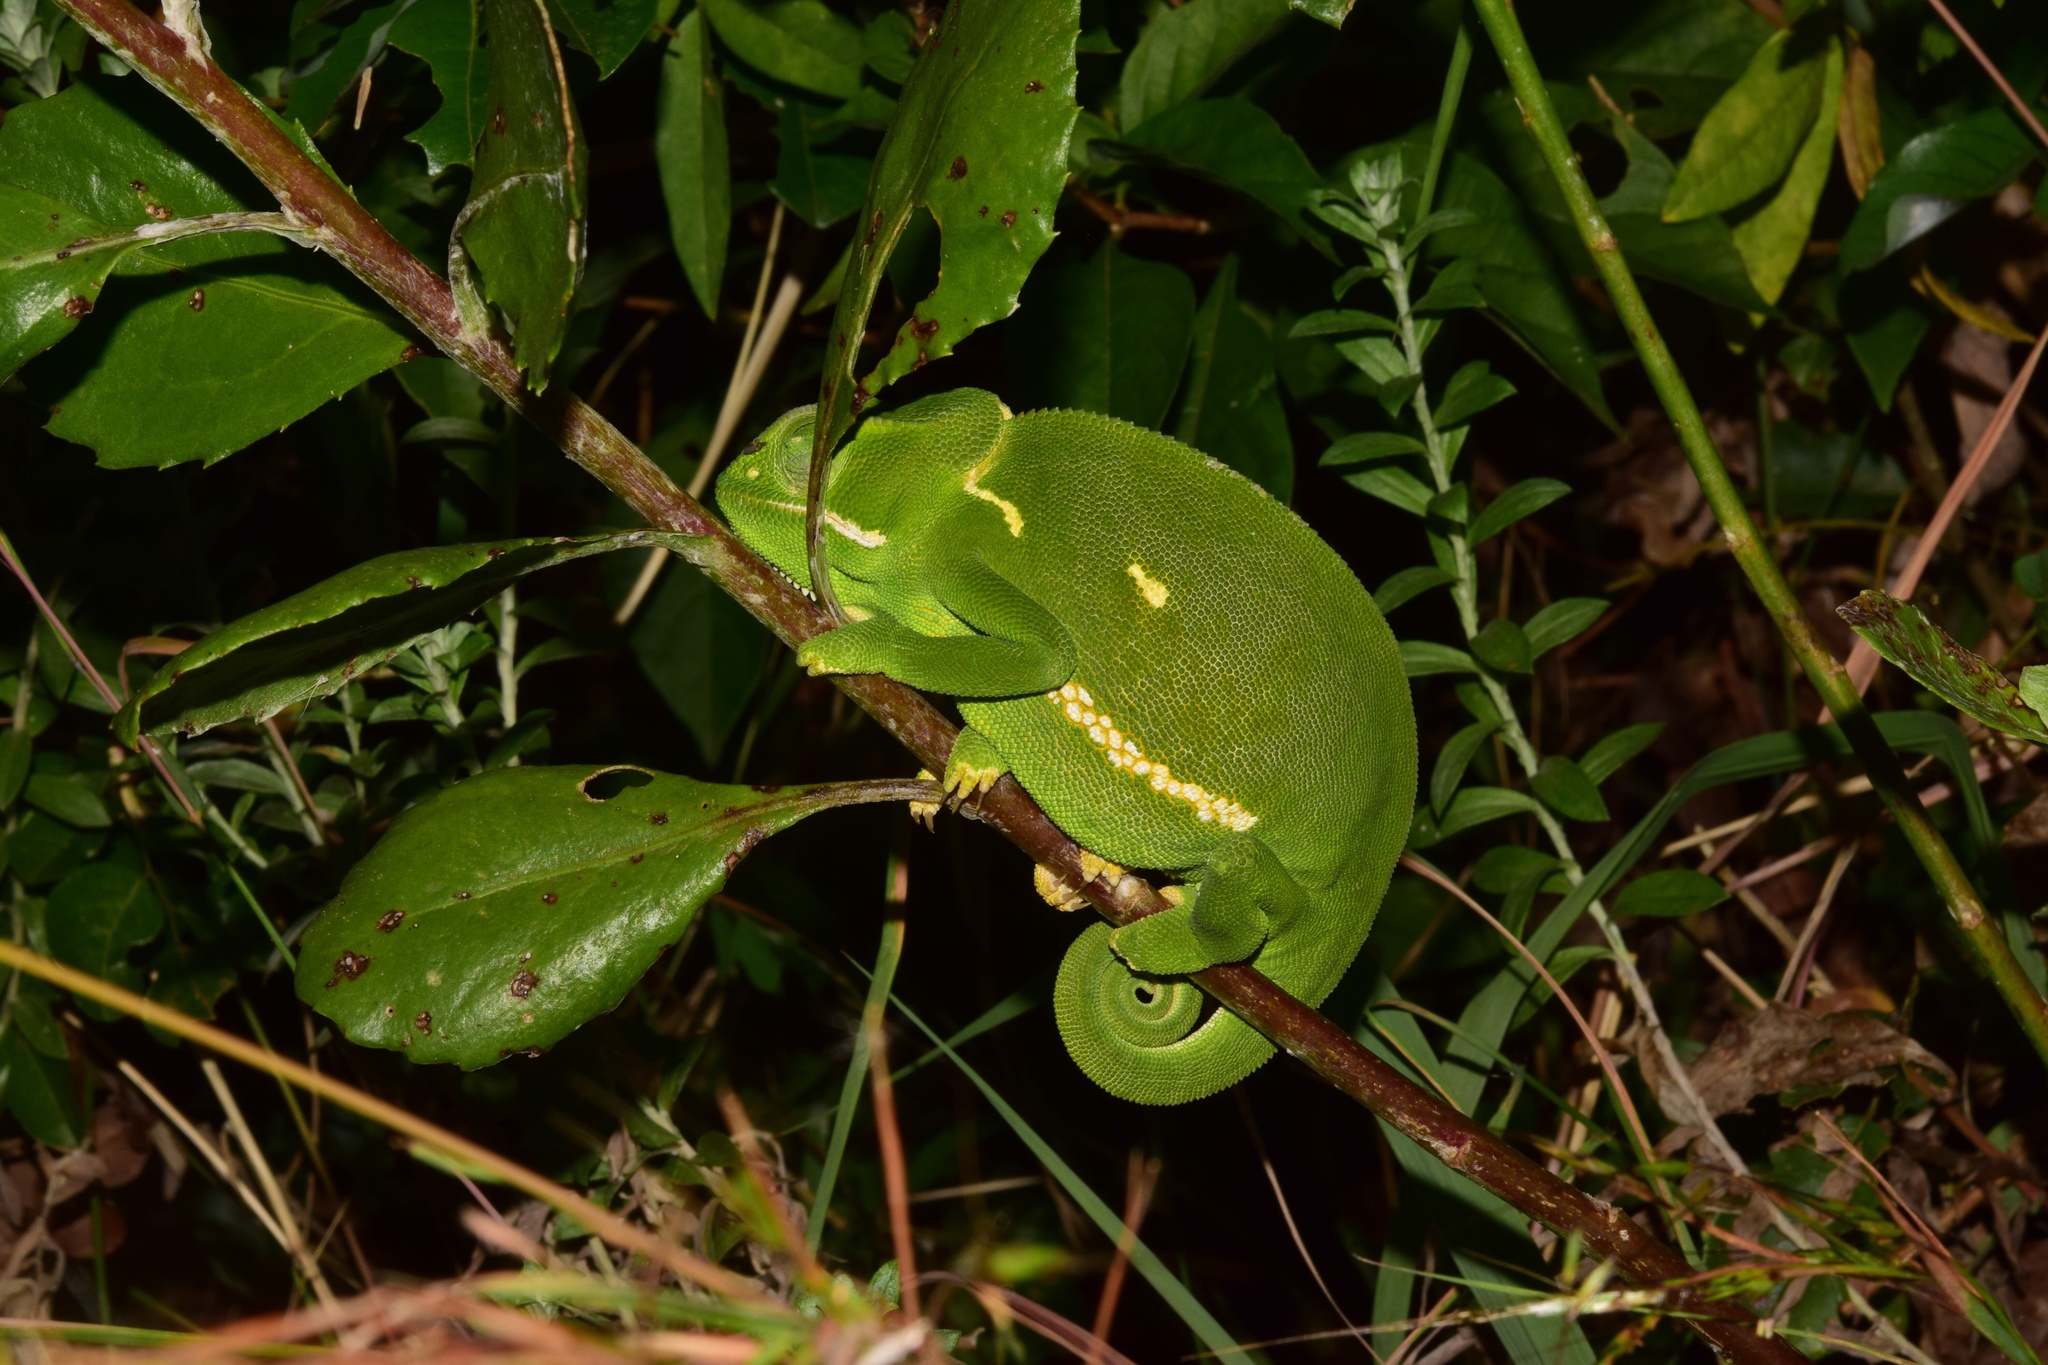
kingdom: Animalia
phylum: Chordata
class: Squamata
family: Chamaeleonidae
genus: Chamaeleo
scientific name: Chamaeleo dilepis
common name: Flapneck chameleon
